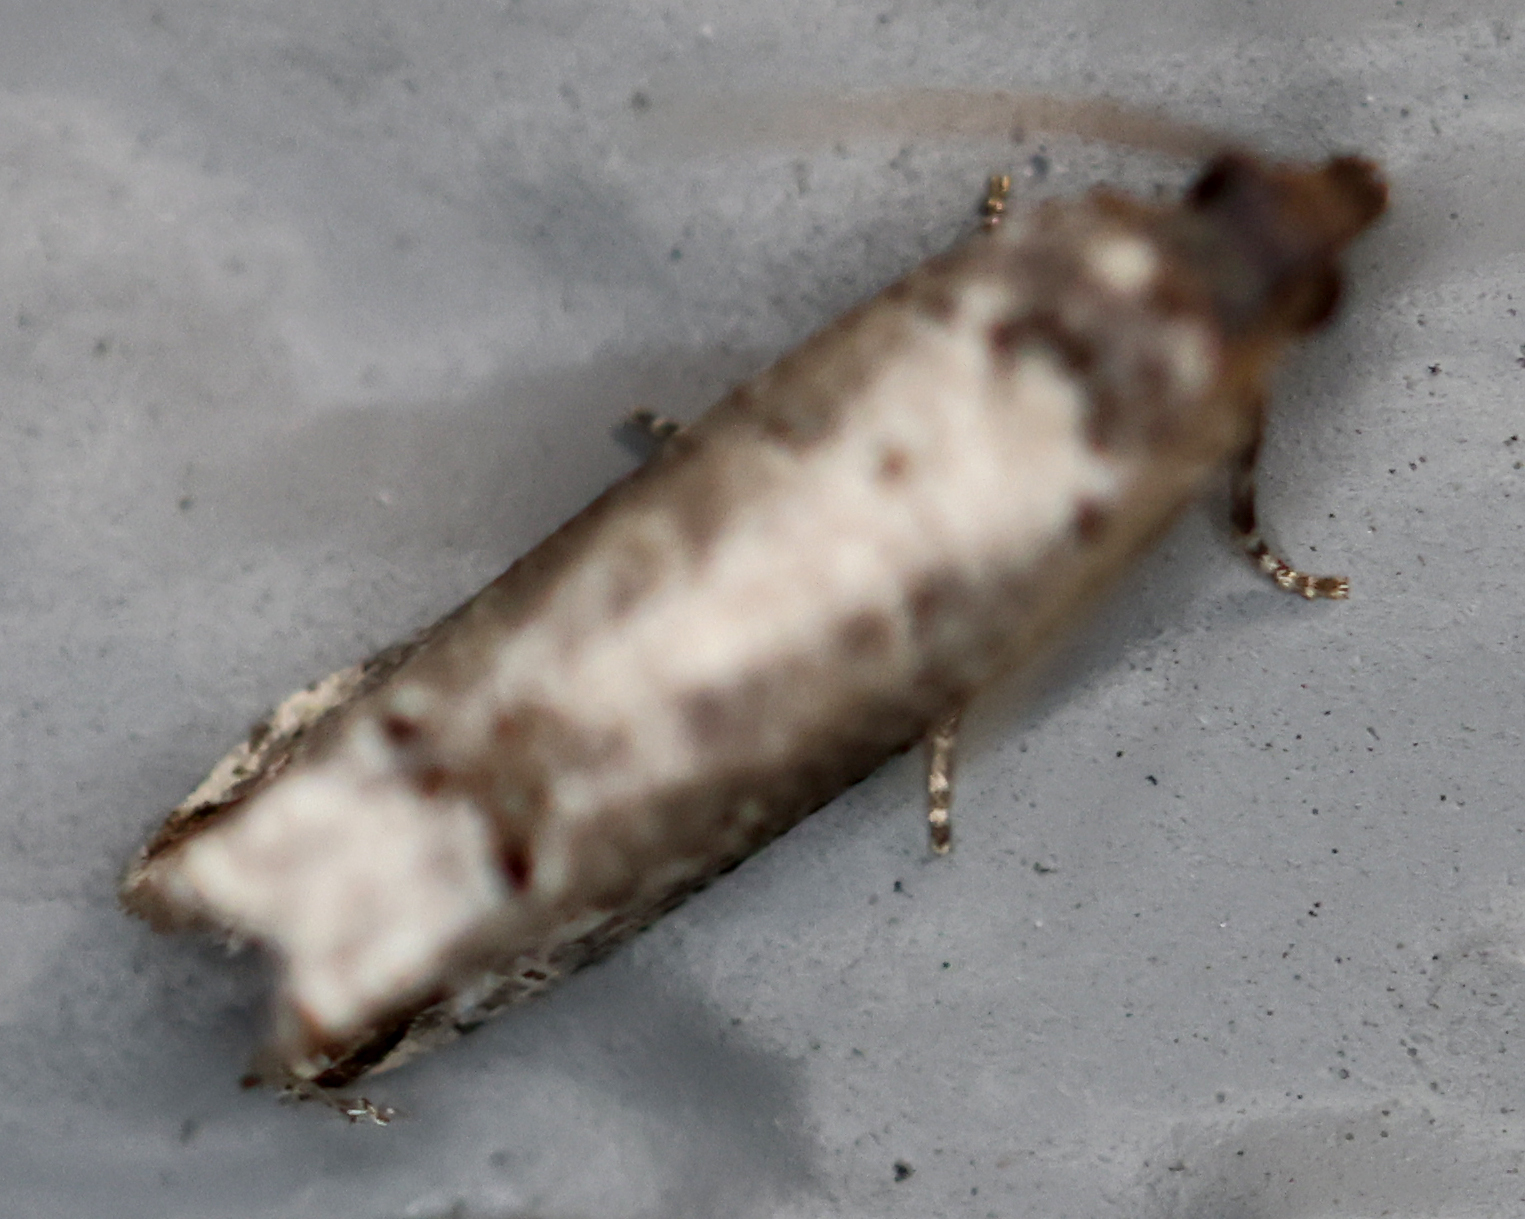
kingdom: Animalia
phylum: Arthropoda
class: Insecta
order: Lepidoptera
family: Tortricidae
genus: Notocelia
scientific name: Notocelia culminana
